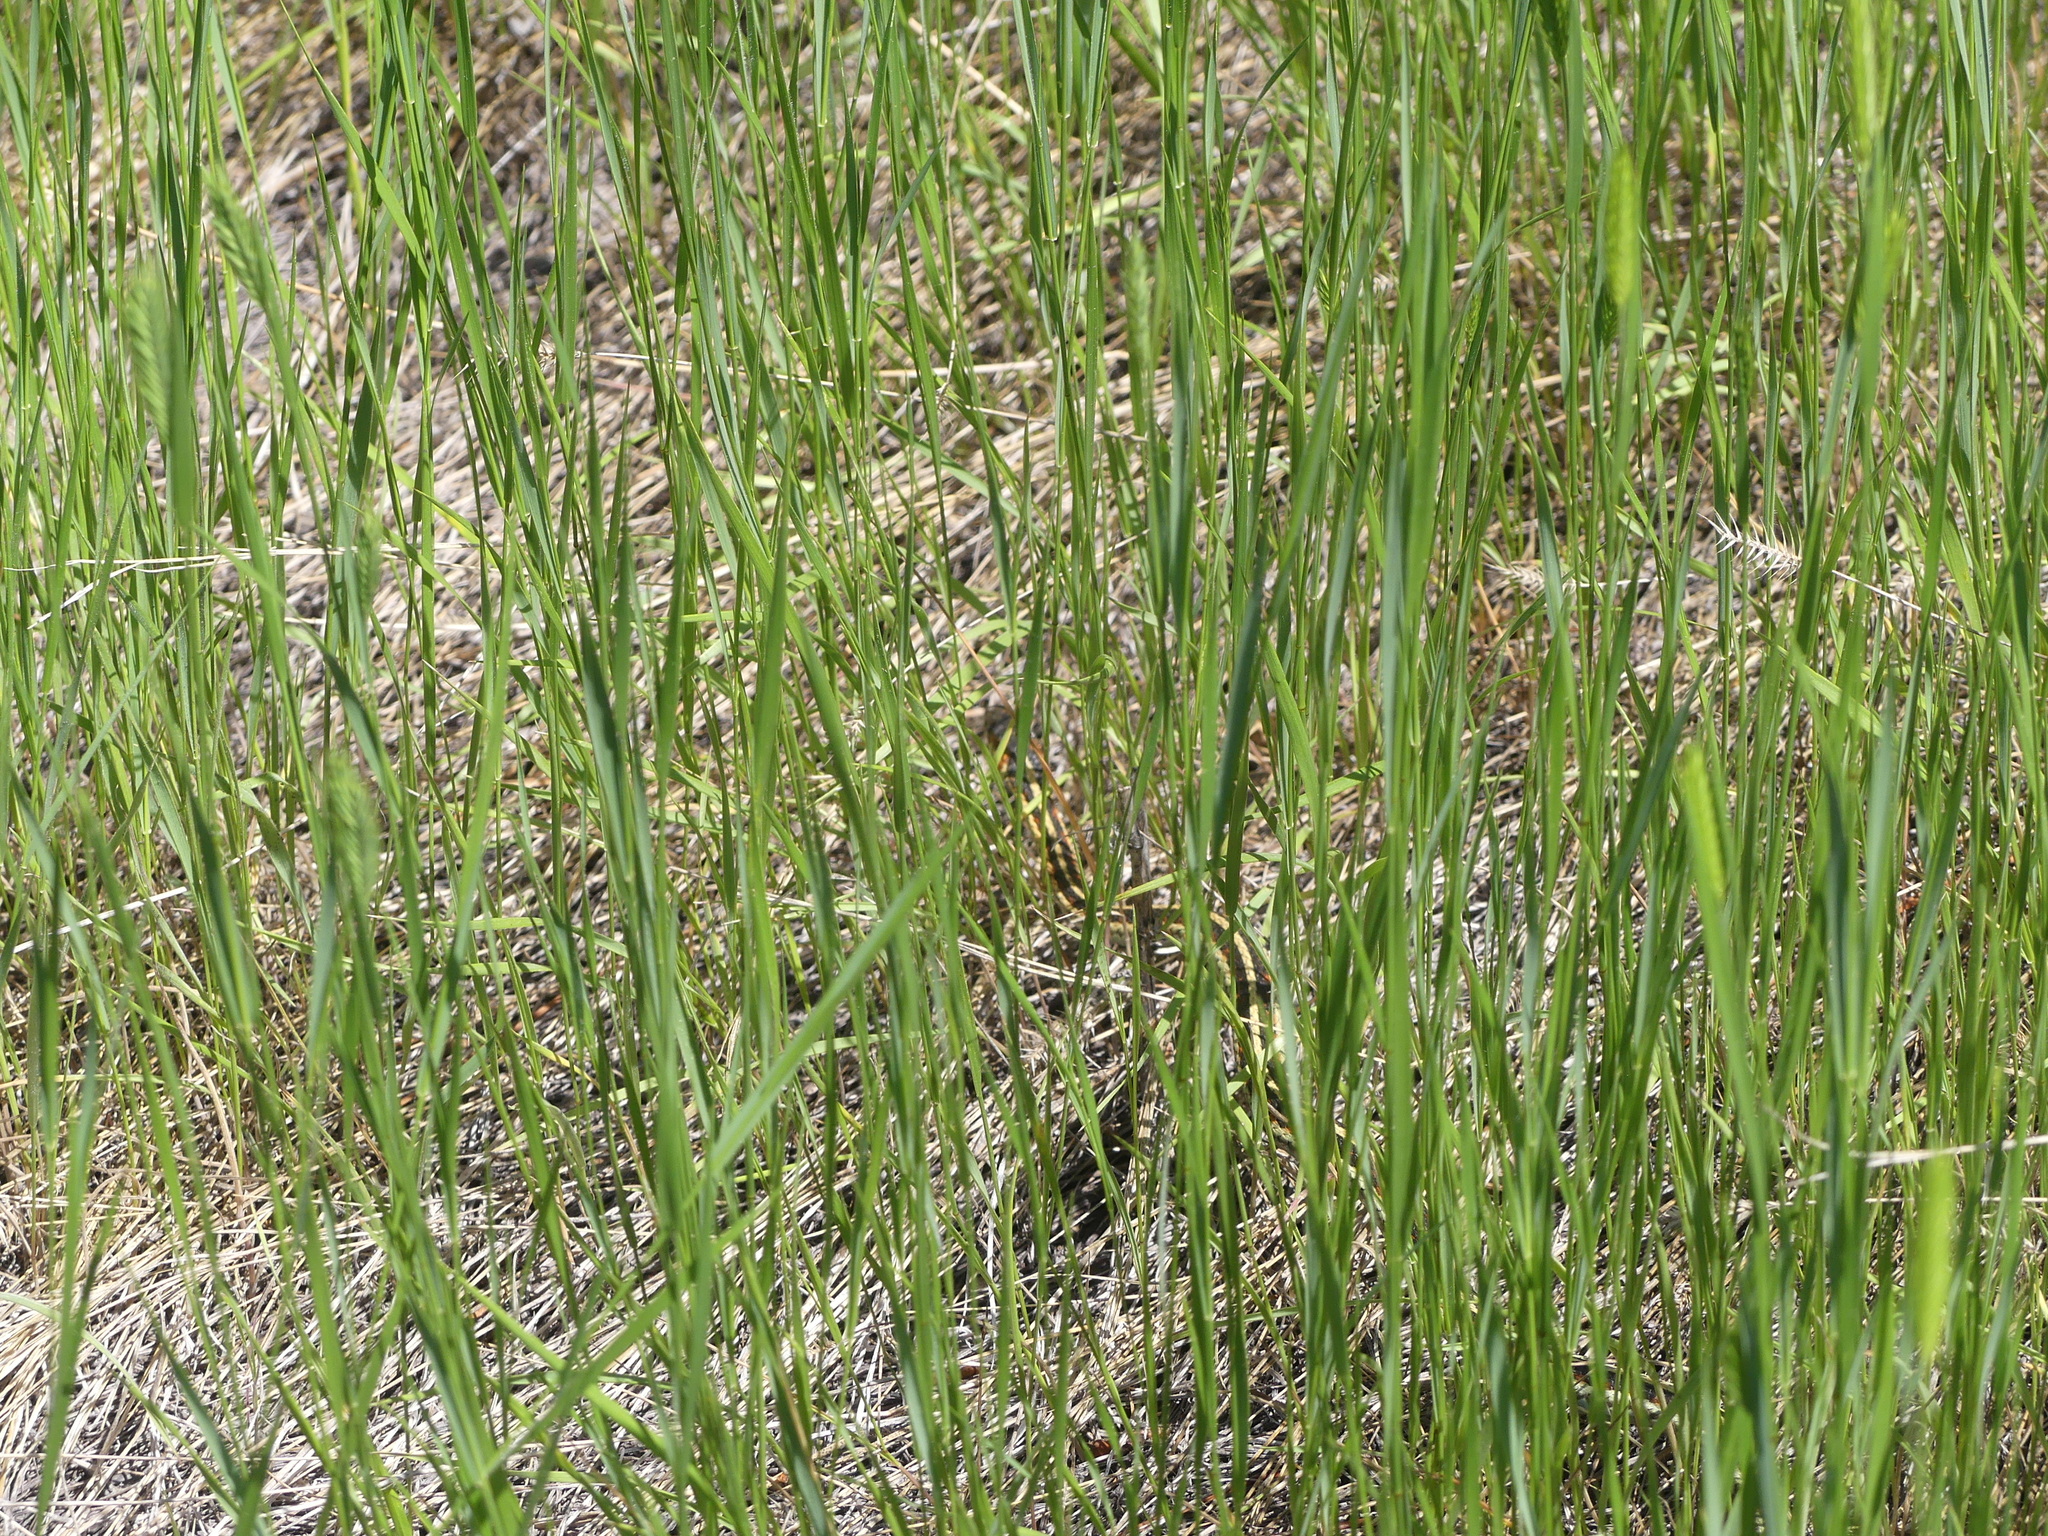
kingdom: Animalia
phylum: Chordata
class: Squamata
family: Colubridae
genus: Thamnophis
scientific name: Thamnophis sirtalis
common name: Common garter snake
